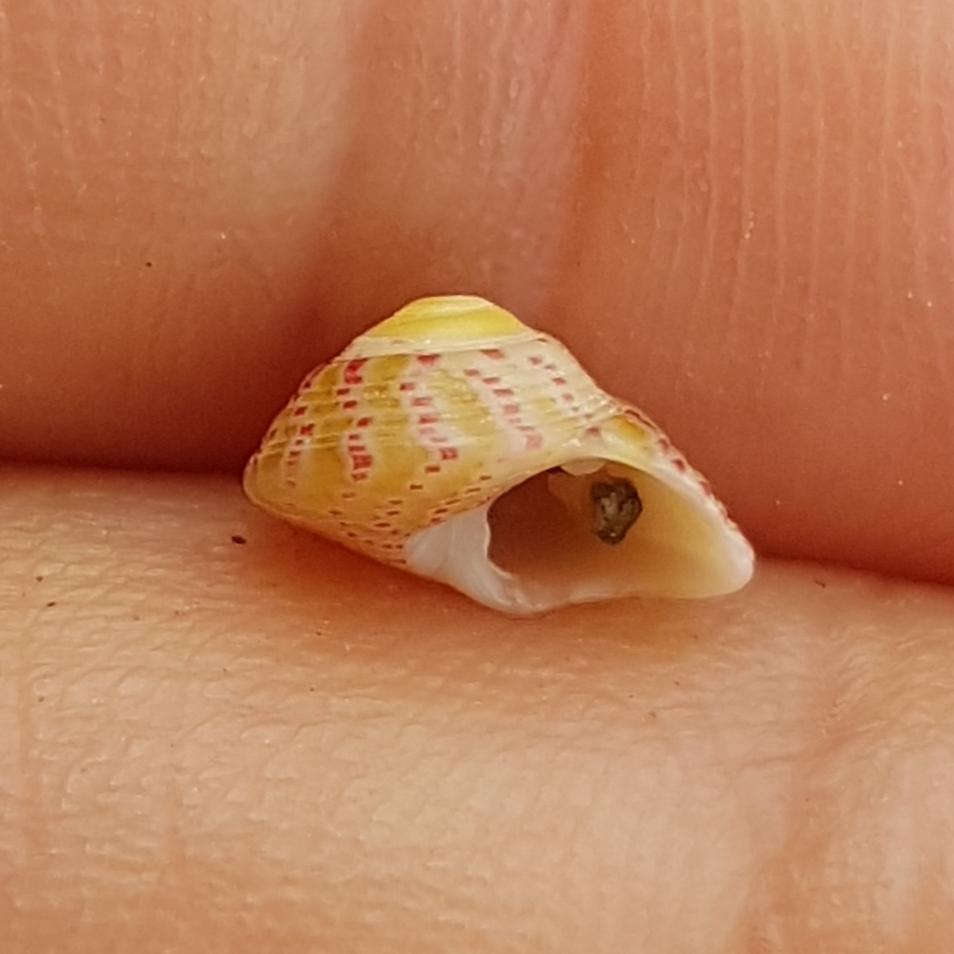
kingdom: Animalia
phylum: Mollusca
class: Gastropoda
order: Trochida
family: Trochidae
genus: Steromphala
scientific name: Steromphala rarilineata
